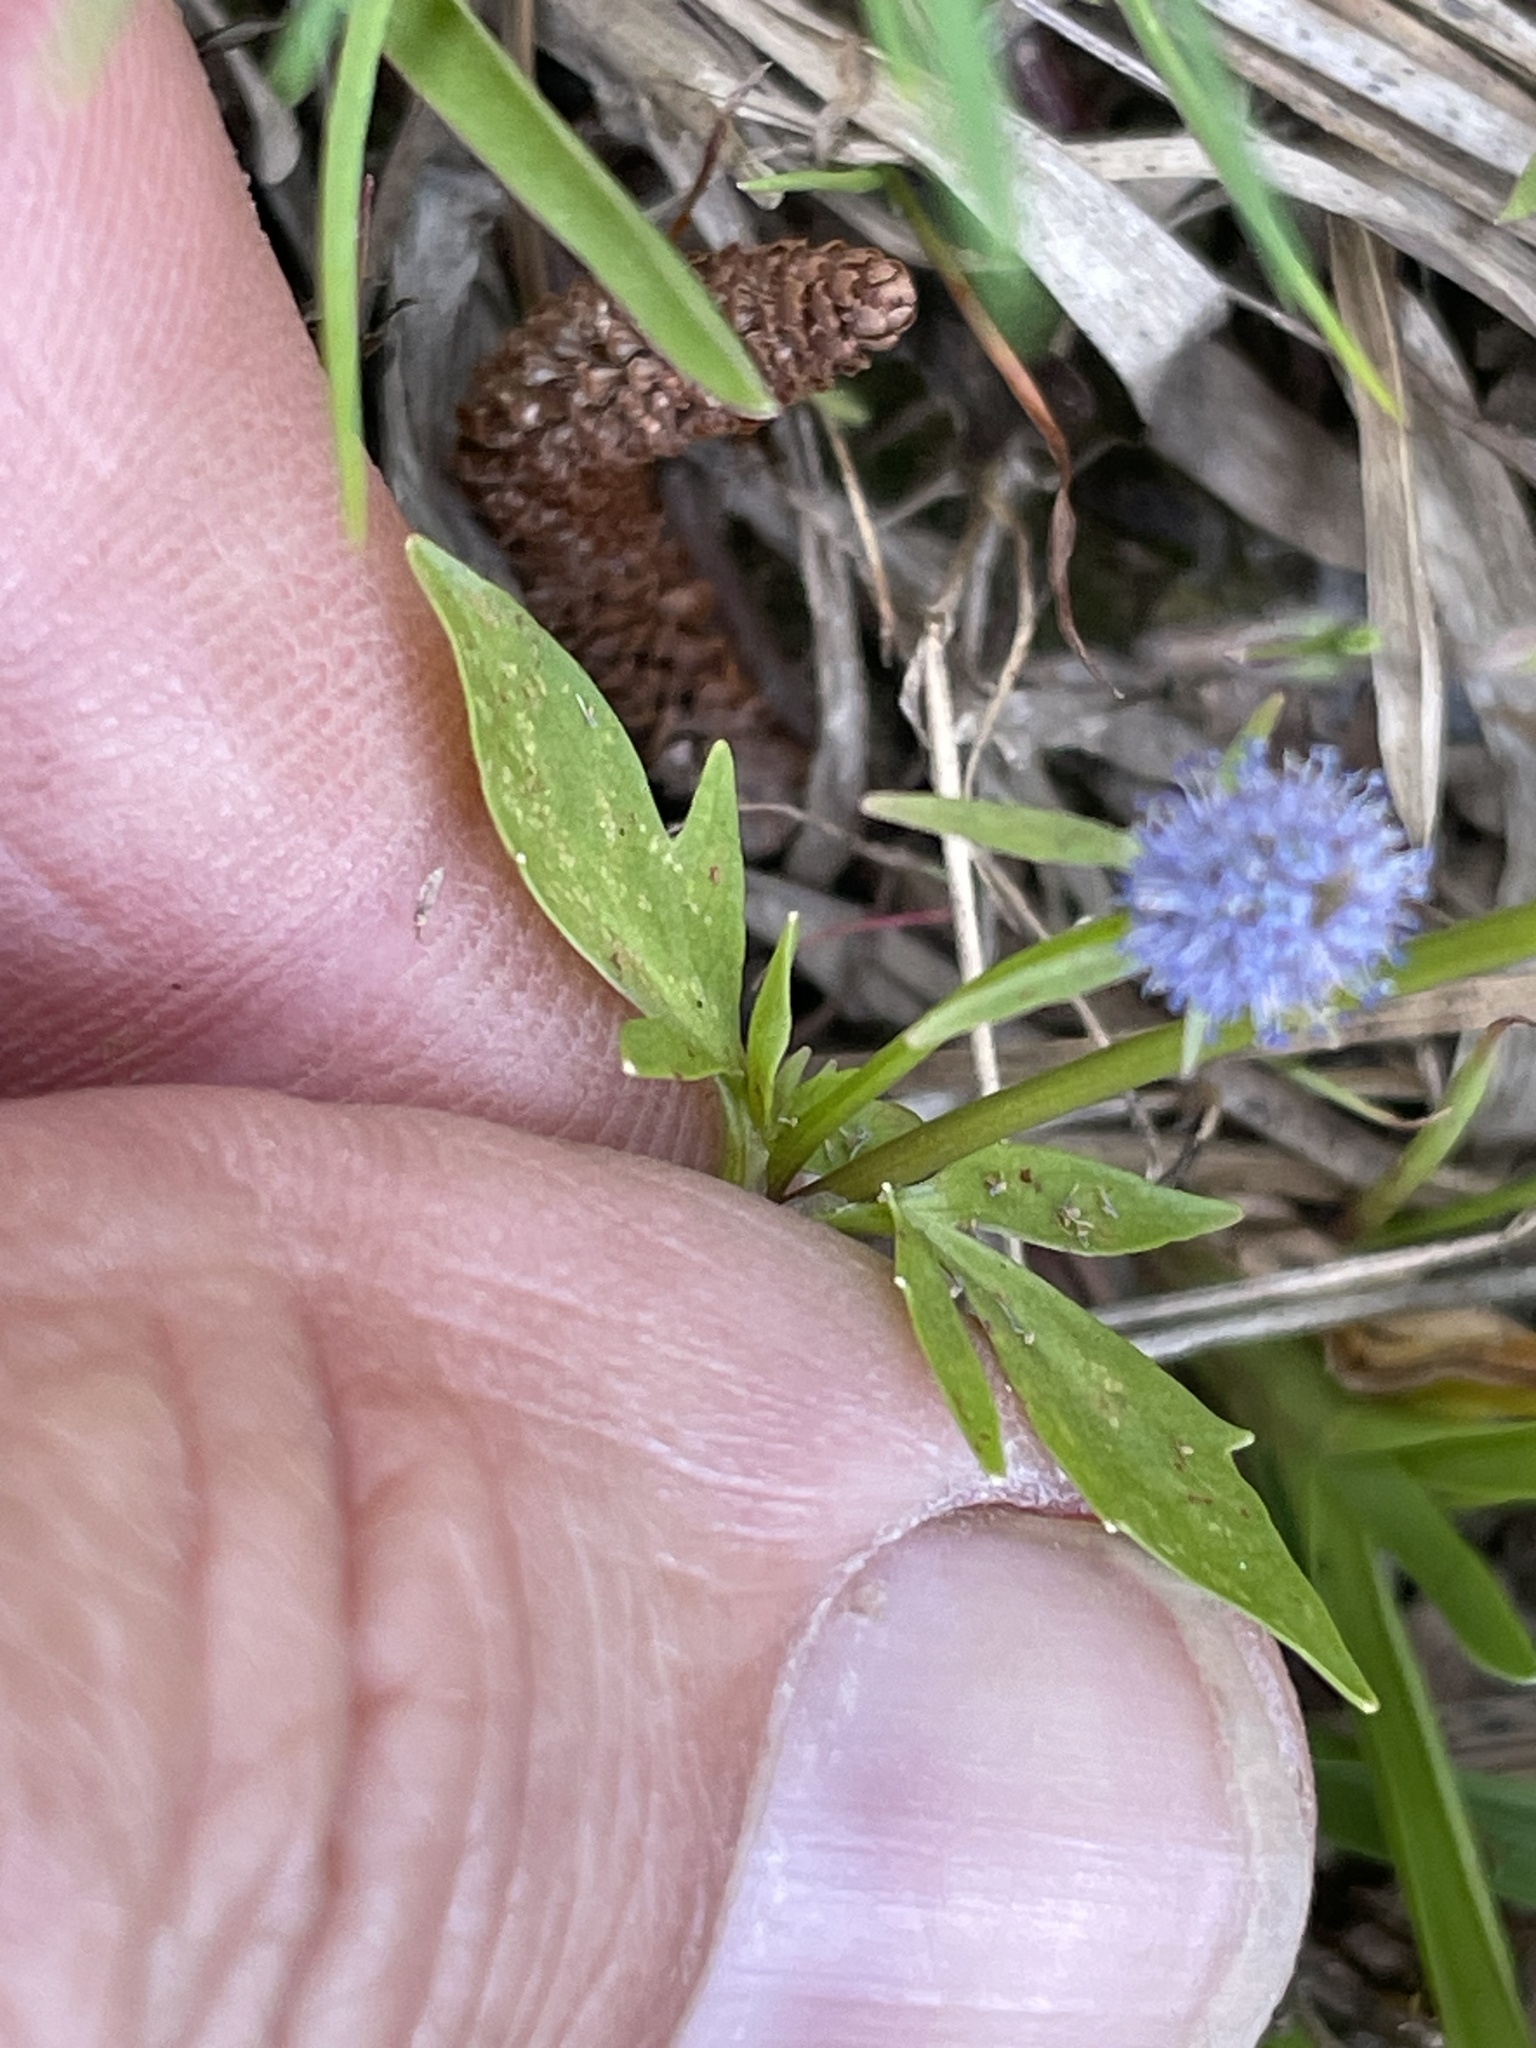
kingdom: Plantae
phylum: Tracheophyta
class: Magnoliopsida
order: Apiales
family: Apiaceae
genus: Eryngium
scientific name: Eryngium prostratum
